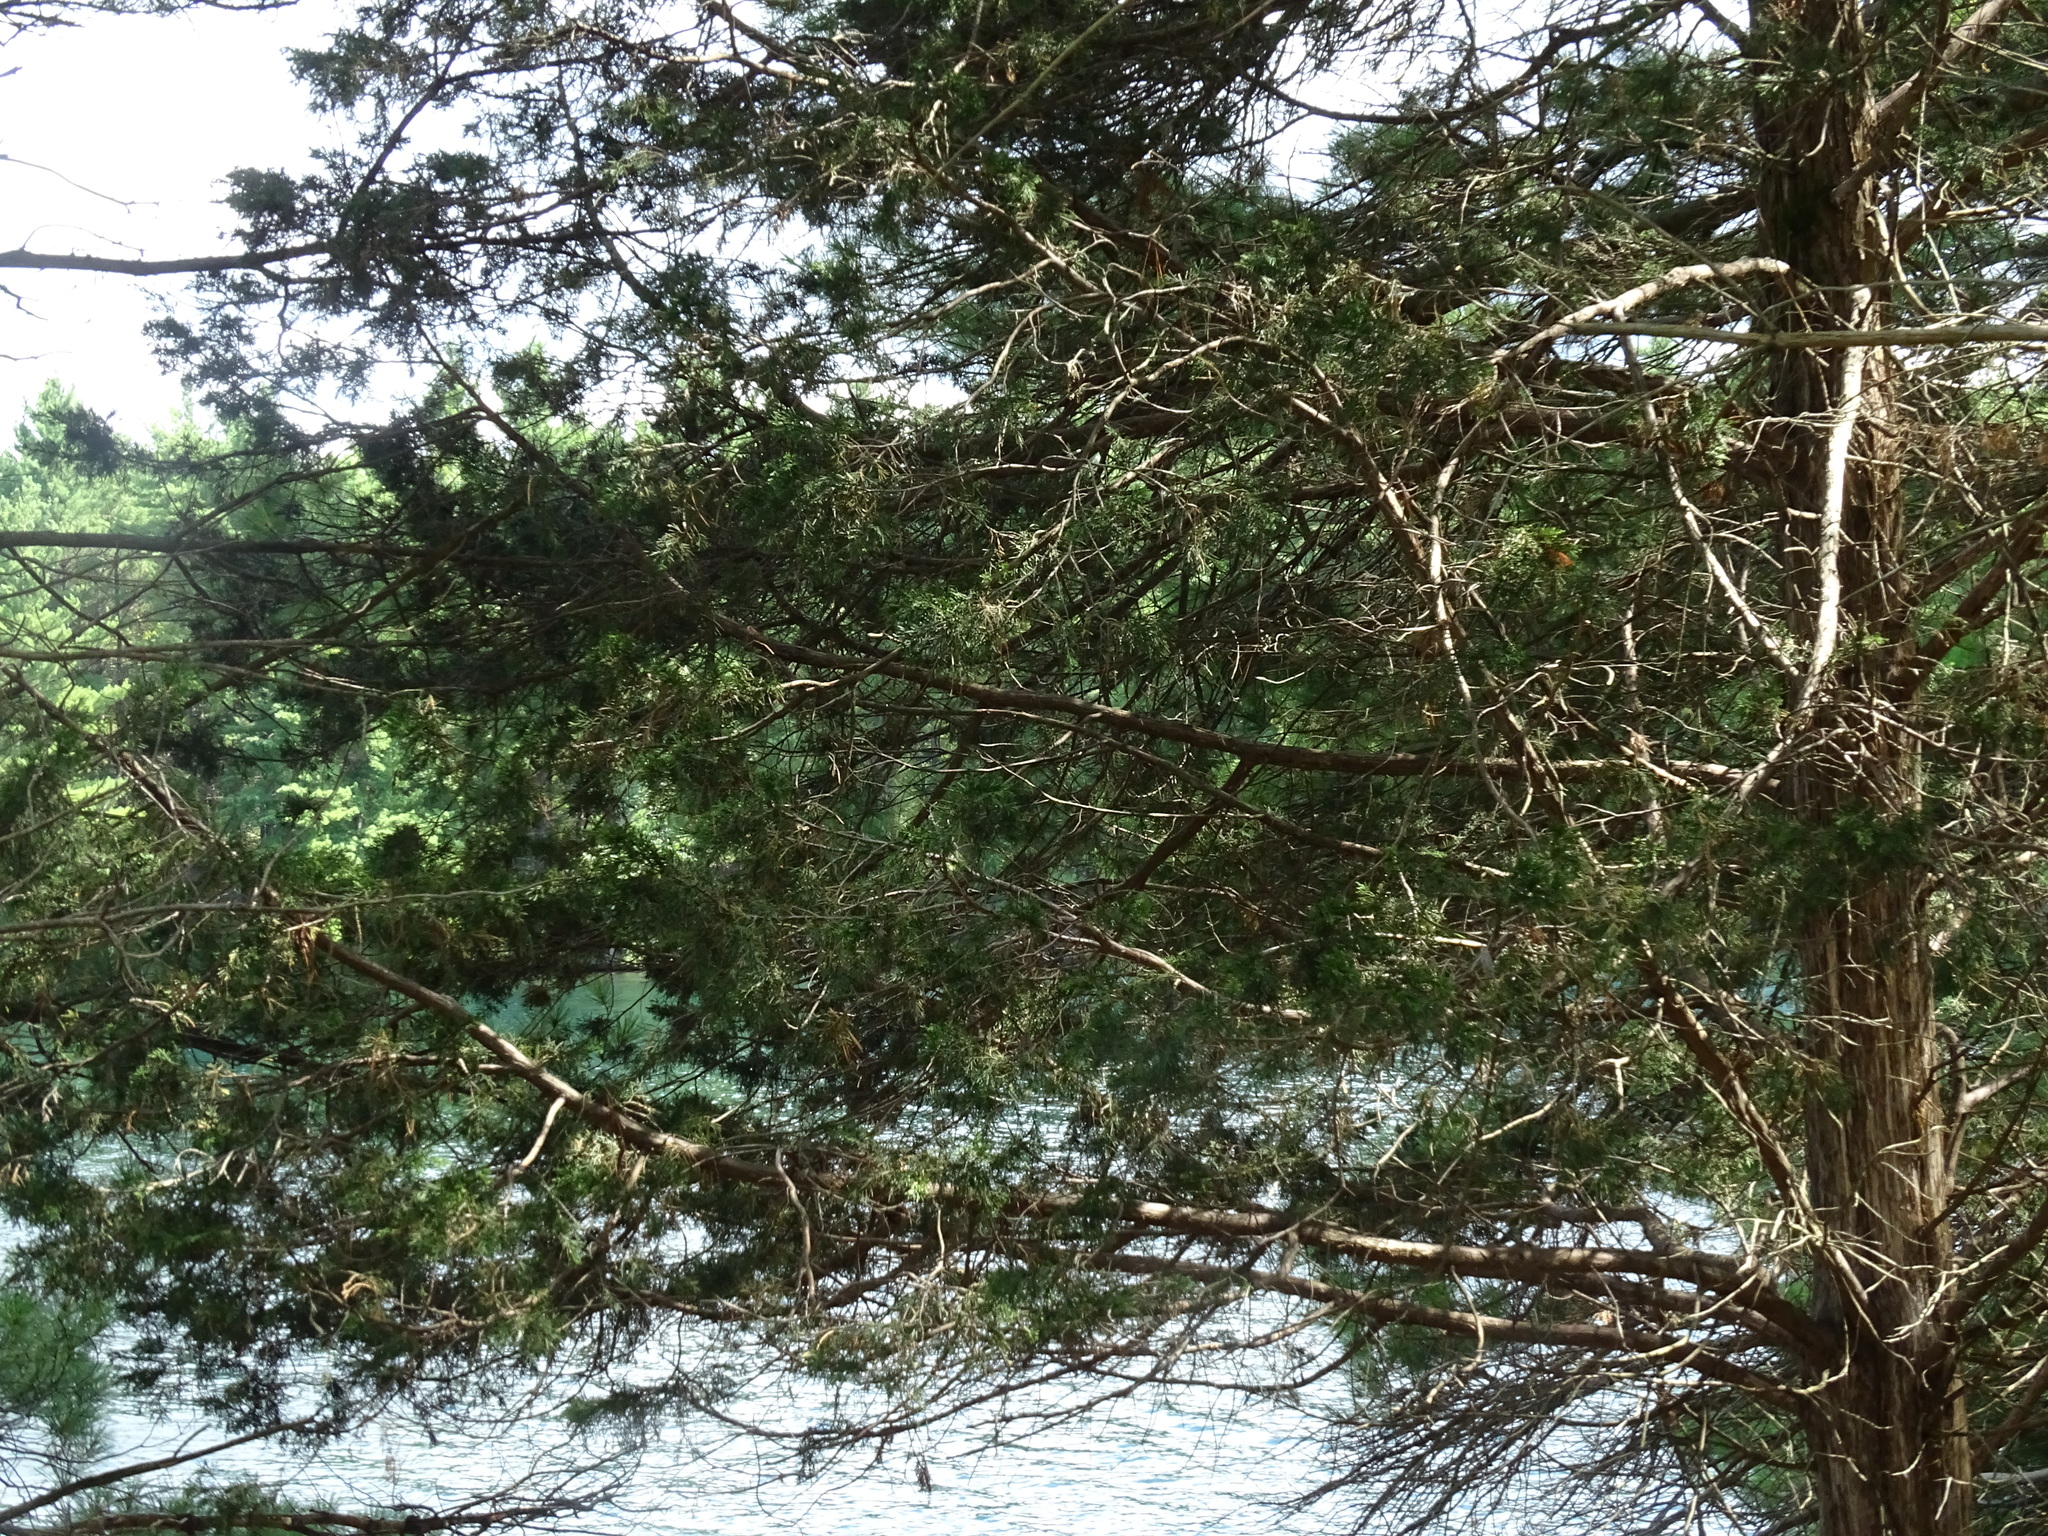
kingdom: Plantae
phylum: Tracheophyta
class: Pinopsida
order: Pinales
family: Cupressaceae
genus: Juniperus
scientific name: Juniperus virginiana
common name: Red juniper
